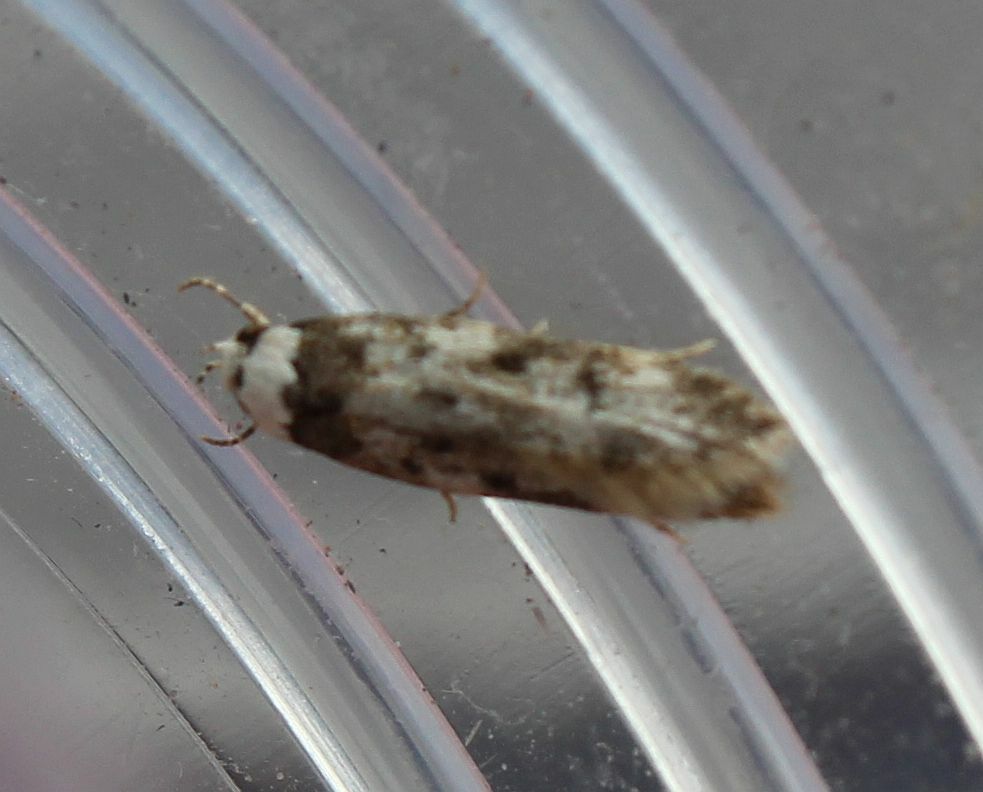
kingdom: Animalia
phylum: Arthropoda
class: Insecta
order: Lepidoptera
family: Oecophoridae
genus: Endrosis
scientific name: Endrosis sarcitrella
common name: White-shouldered house moth
